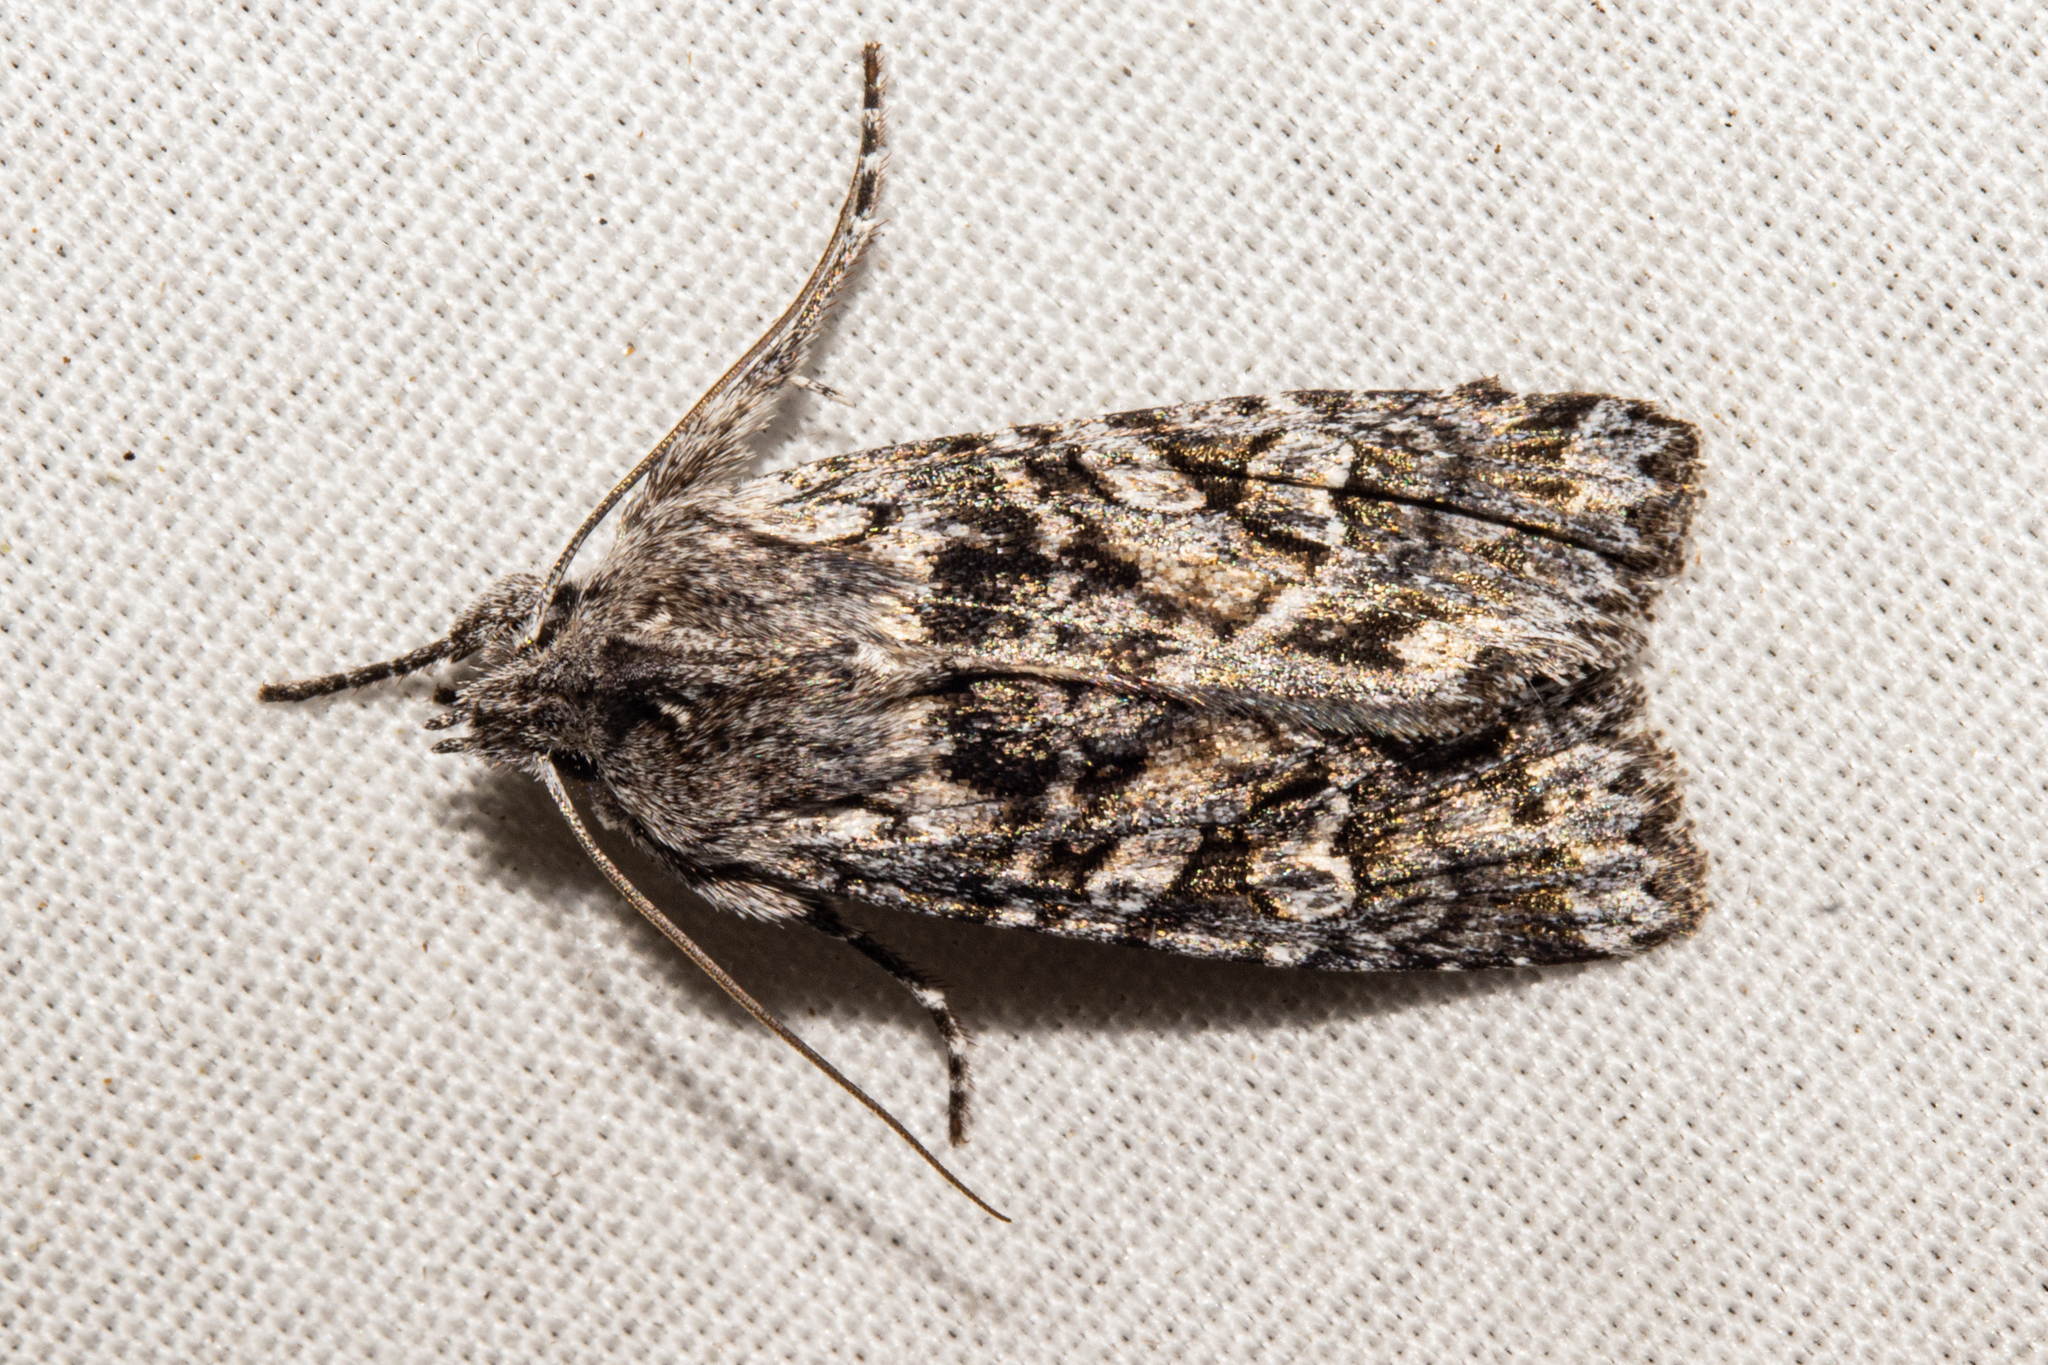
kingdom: Animalia
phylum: Arthropoda
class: Insecta
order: Lepidoptera
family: Noctuidae
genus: Physetica
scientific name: Physetica longstaffii
